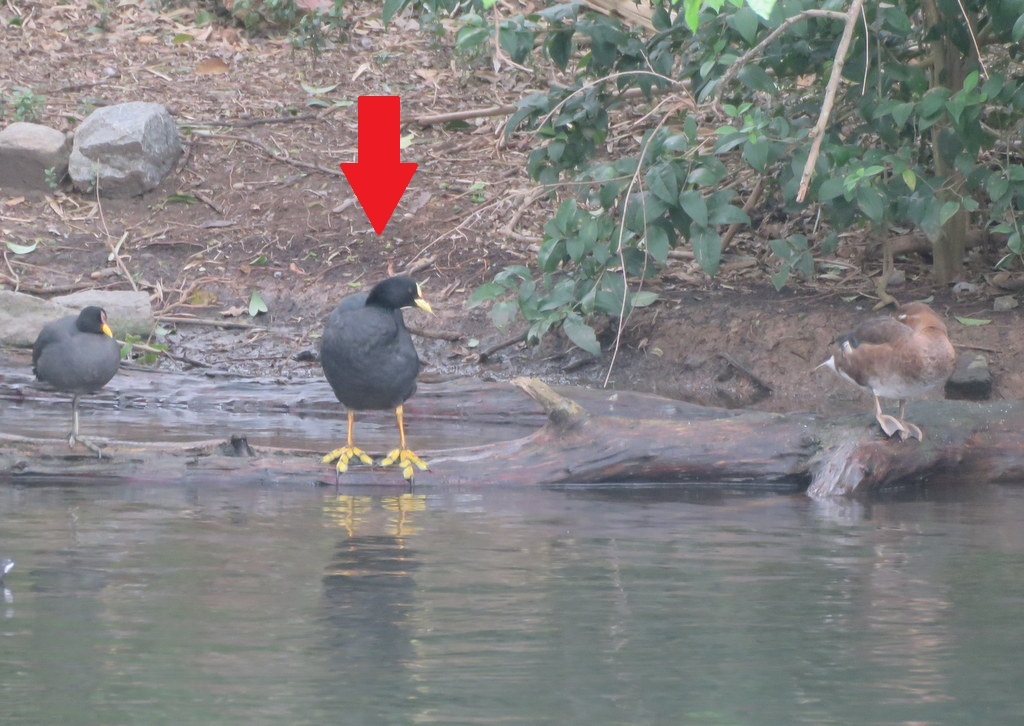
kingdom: Animalia
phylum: Chordata
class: Aves
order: Gruiformes
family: Rallidae
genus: Fulica
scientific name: Fulica armillata
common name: Red-gartered coot
